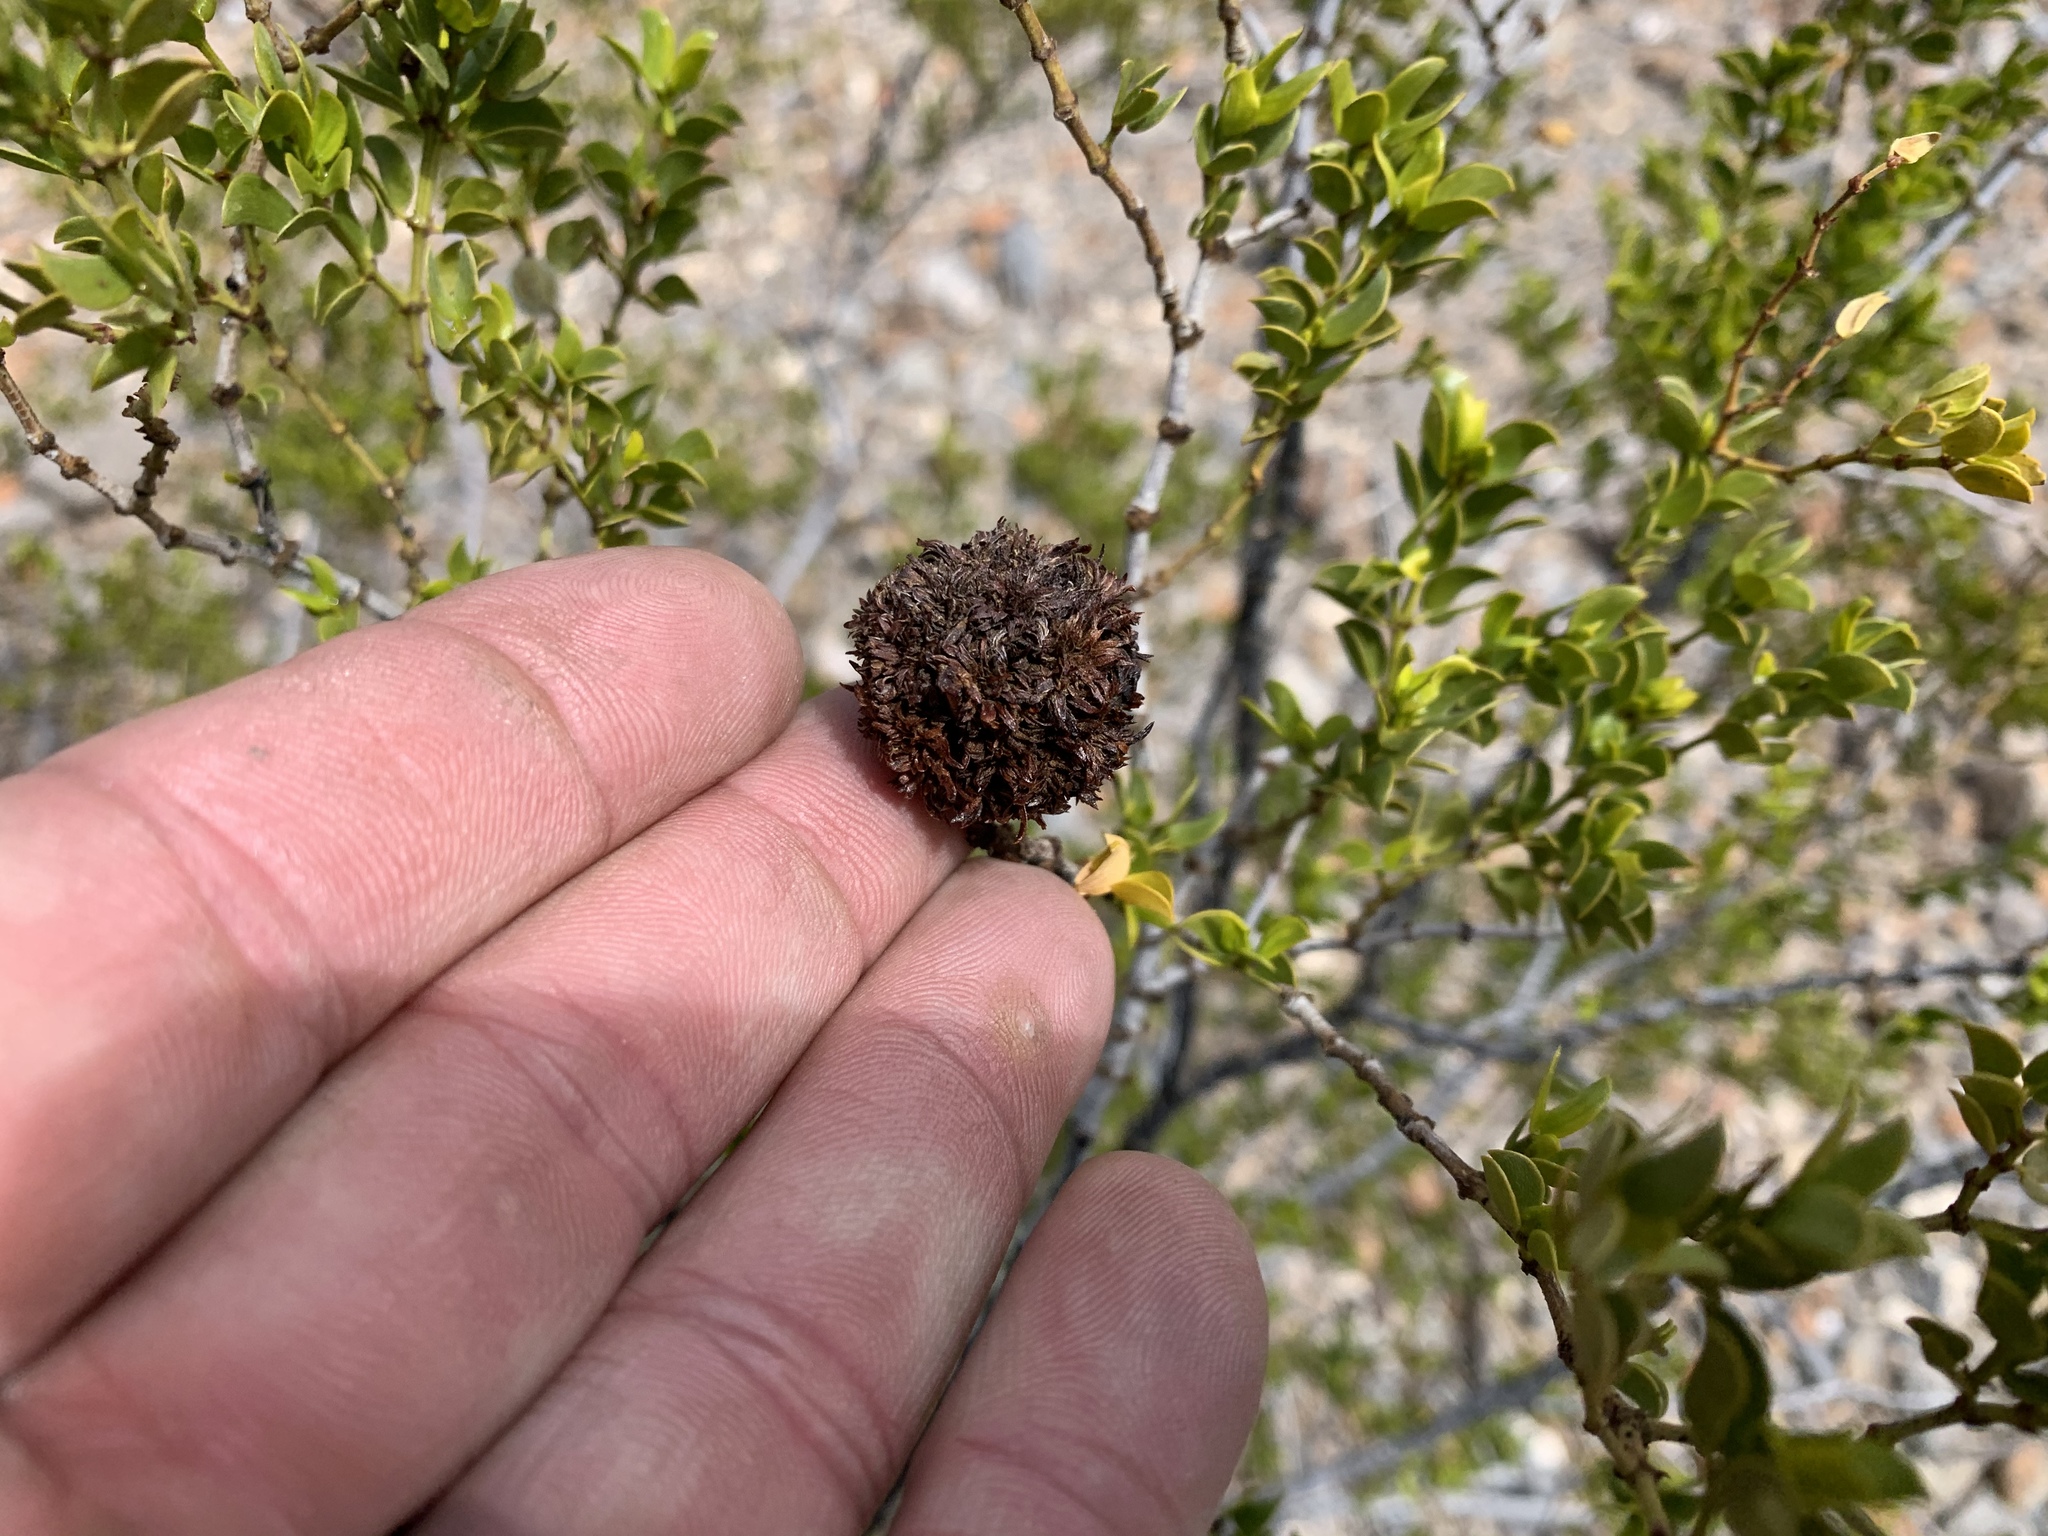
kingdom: Animalia
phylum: Arthropoda
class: Insecta
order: Diptera
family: Cecidomyiidae
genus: Asphondylia
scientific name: Asphondylia auripila
